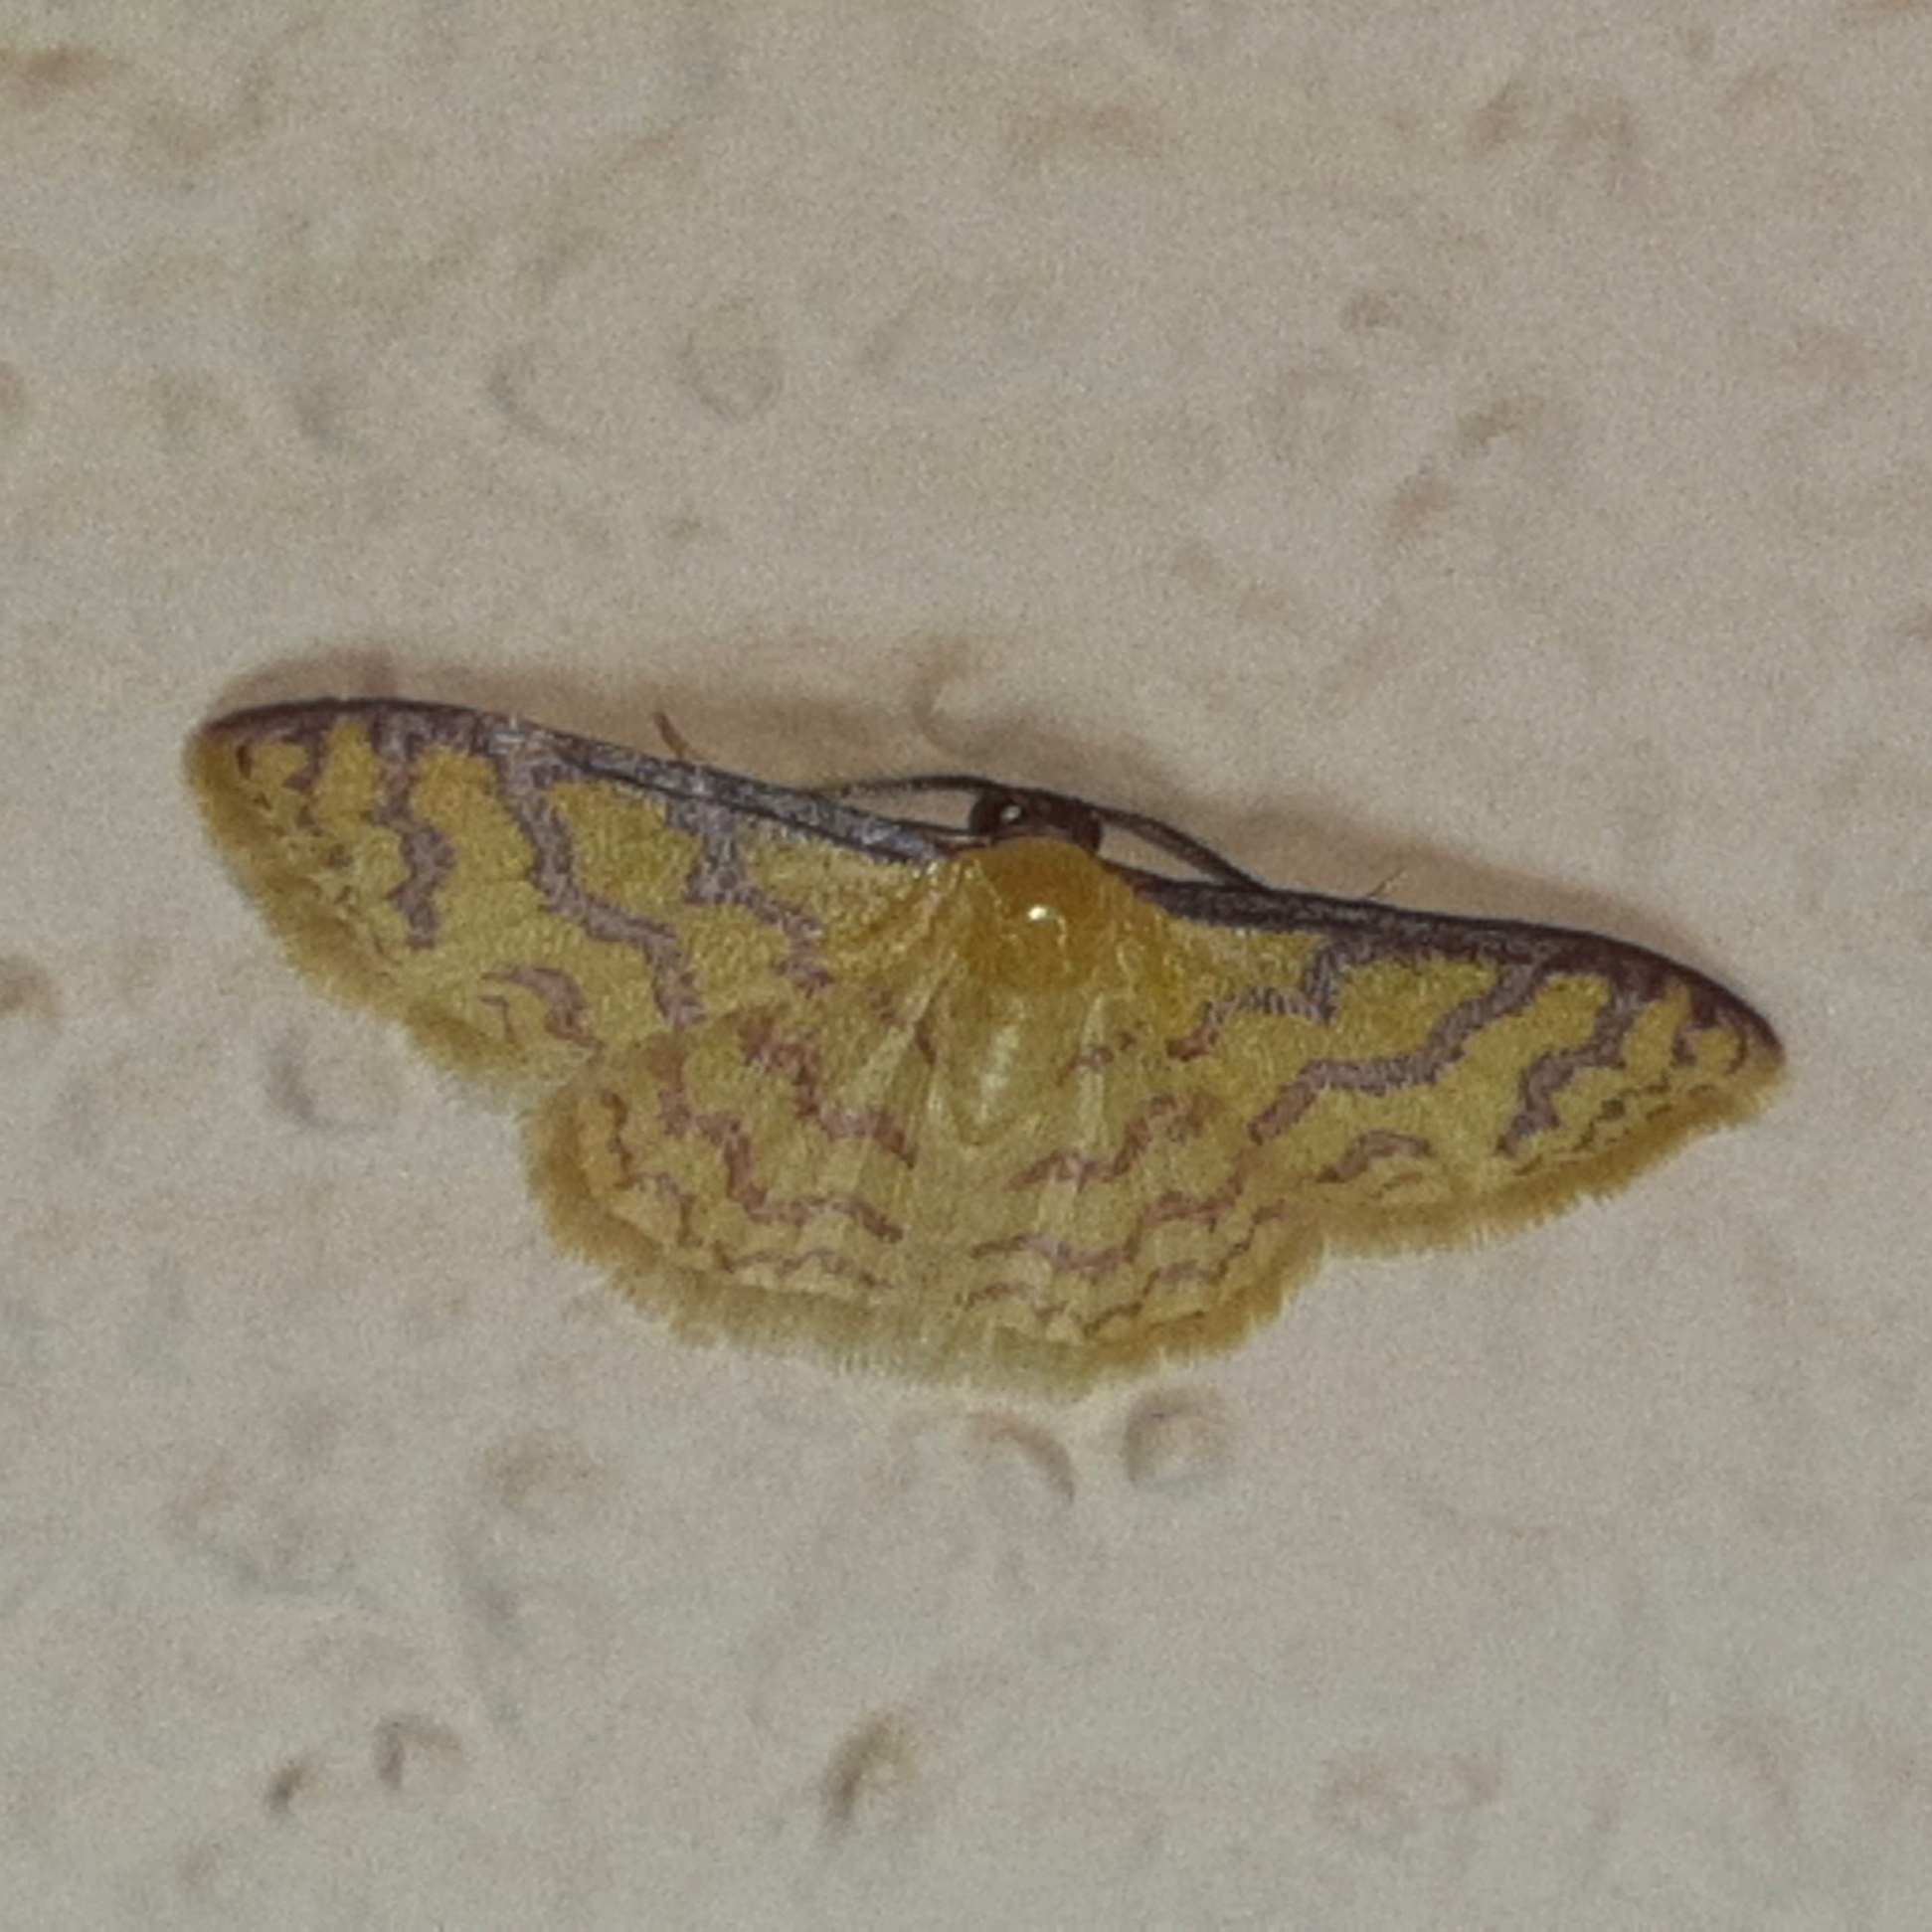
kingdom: Animalia
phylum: Arthropoda
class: Insecta
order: Lepidoptera
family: Geometridae
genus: Tricentrogyna
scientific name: Tricentrogyna flexivitta
